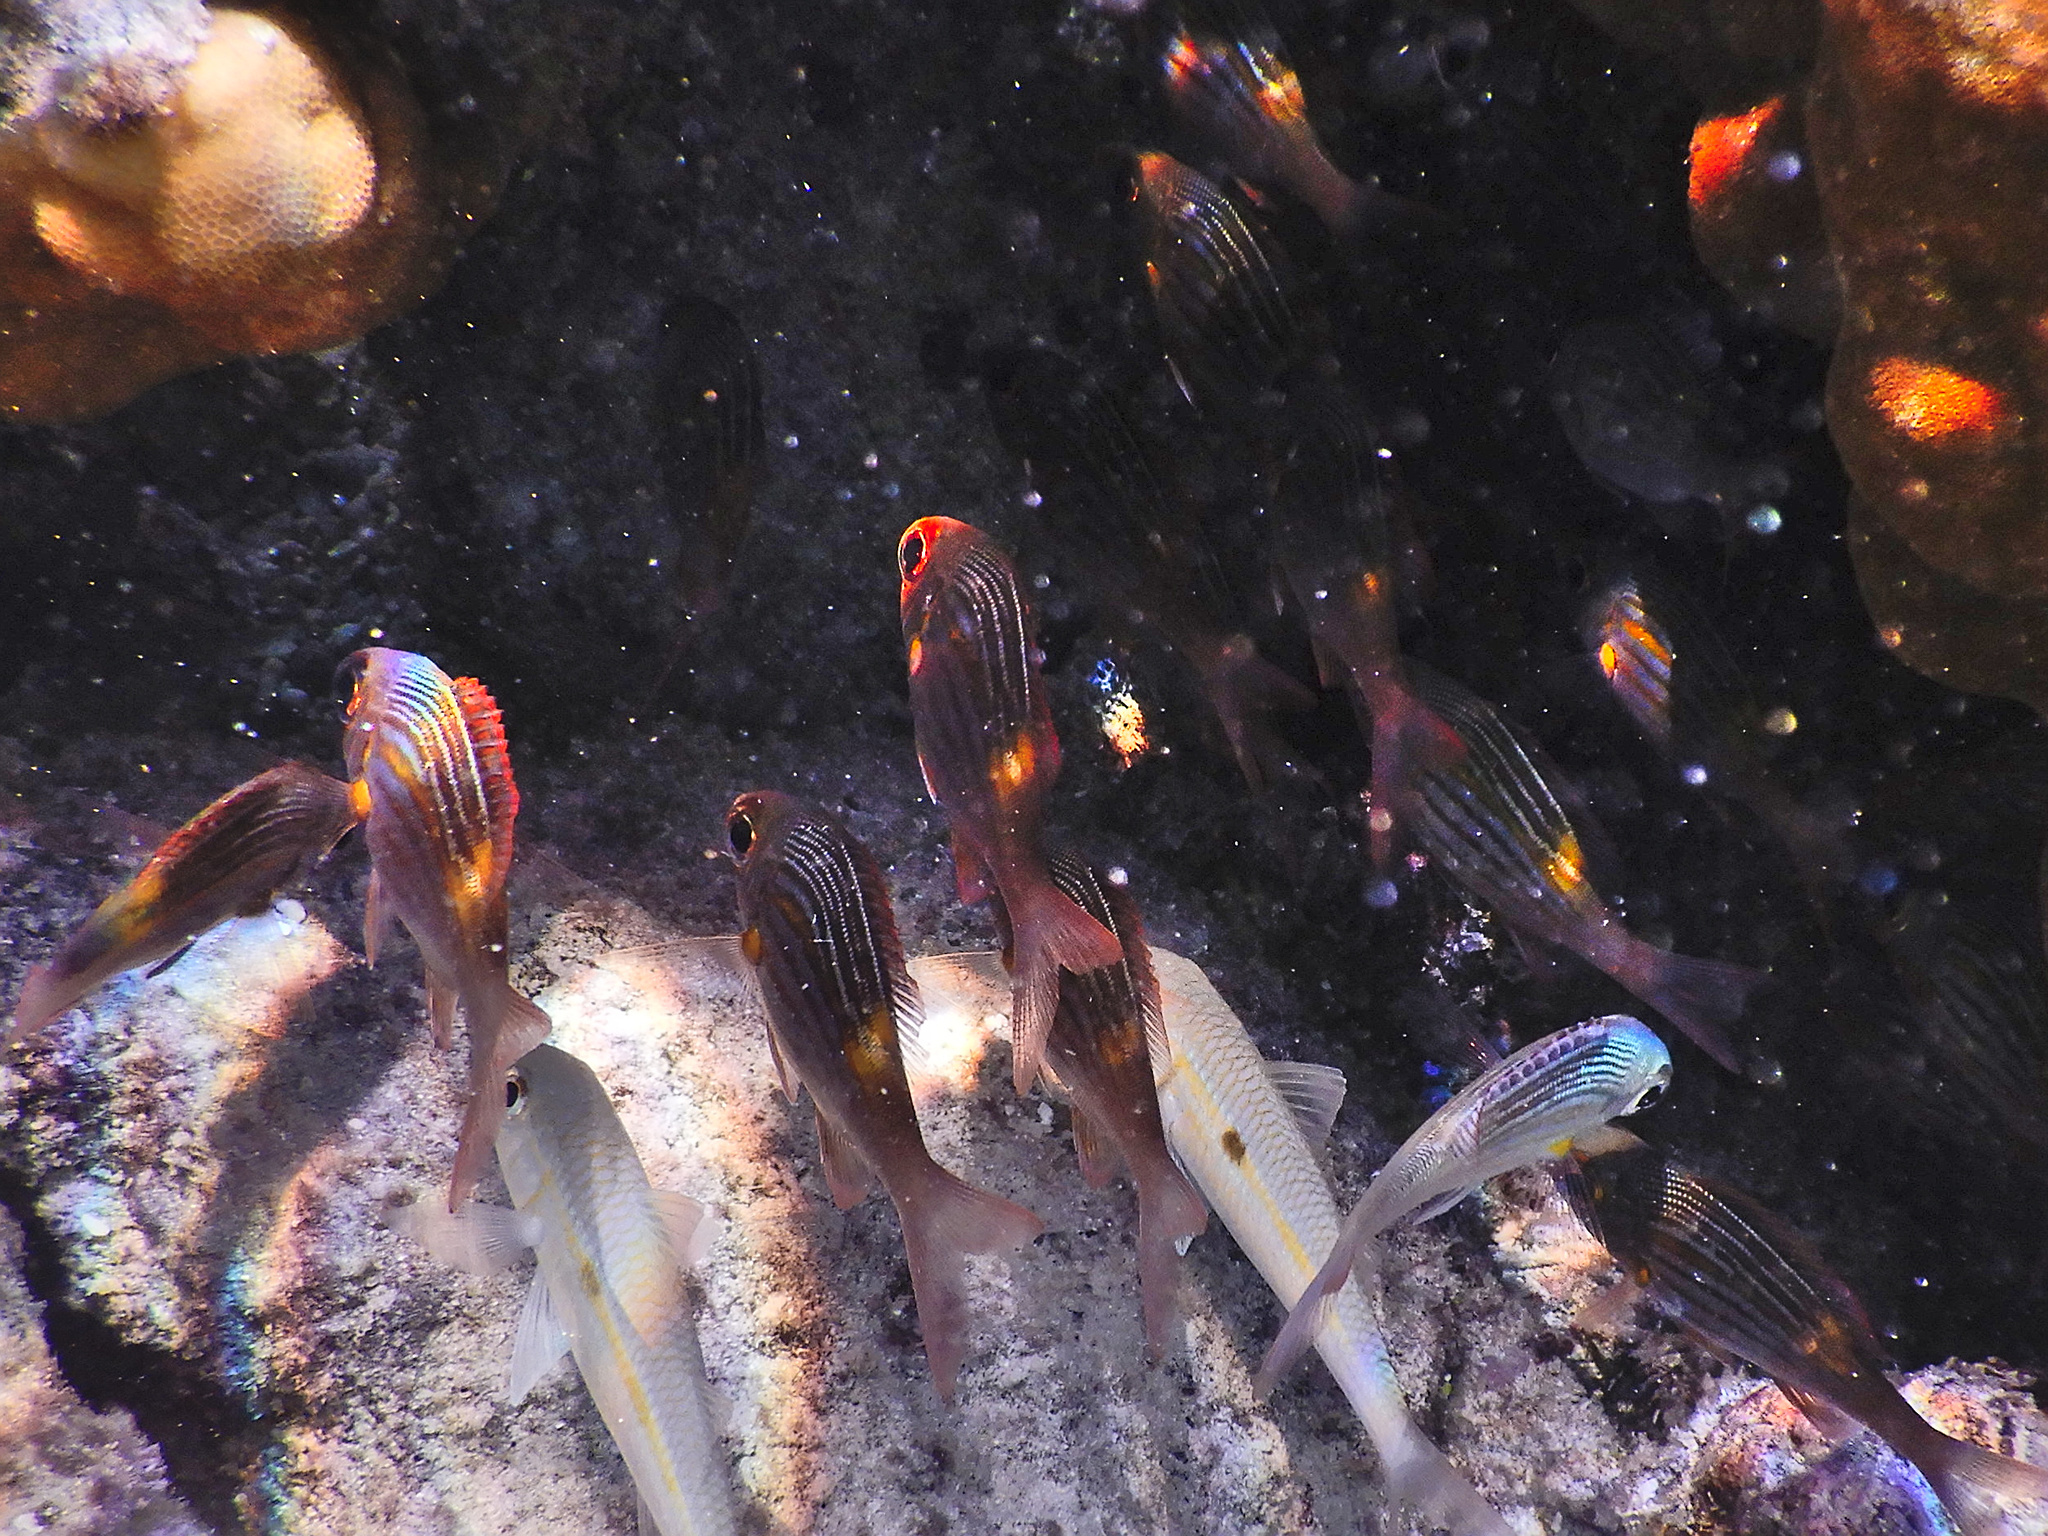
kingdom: Animalia
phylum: Chordata
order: Perciformes
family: Lethrinidae
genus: Gnathodentex
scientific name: Gnathodentex aureolineatus
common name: Gold-lined sea bream
